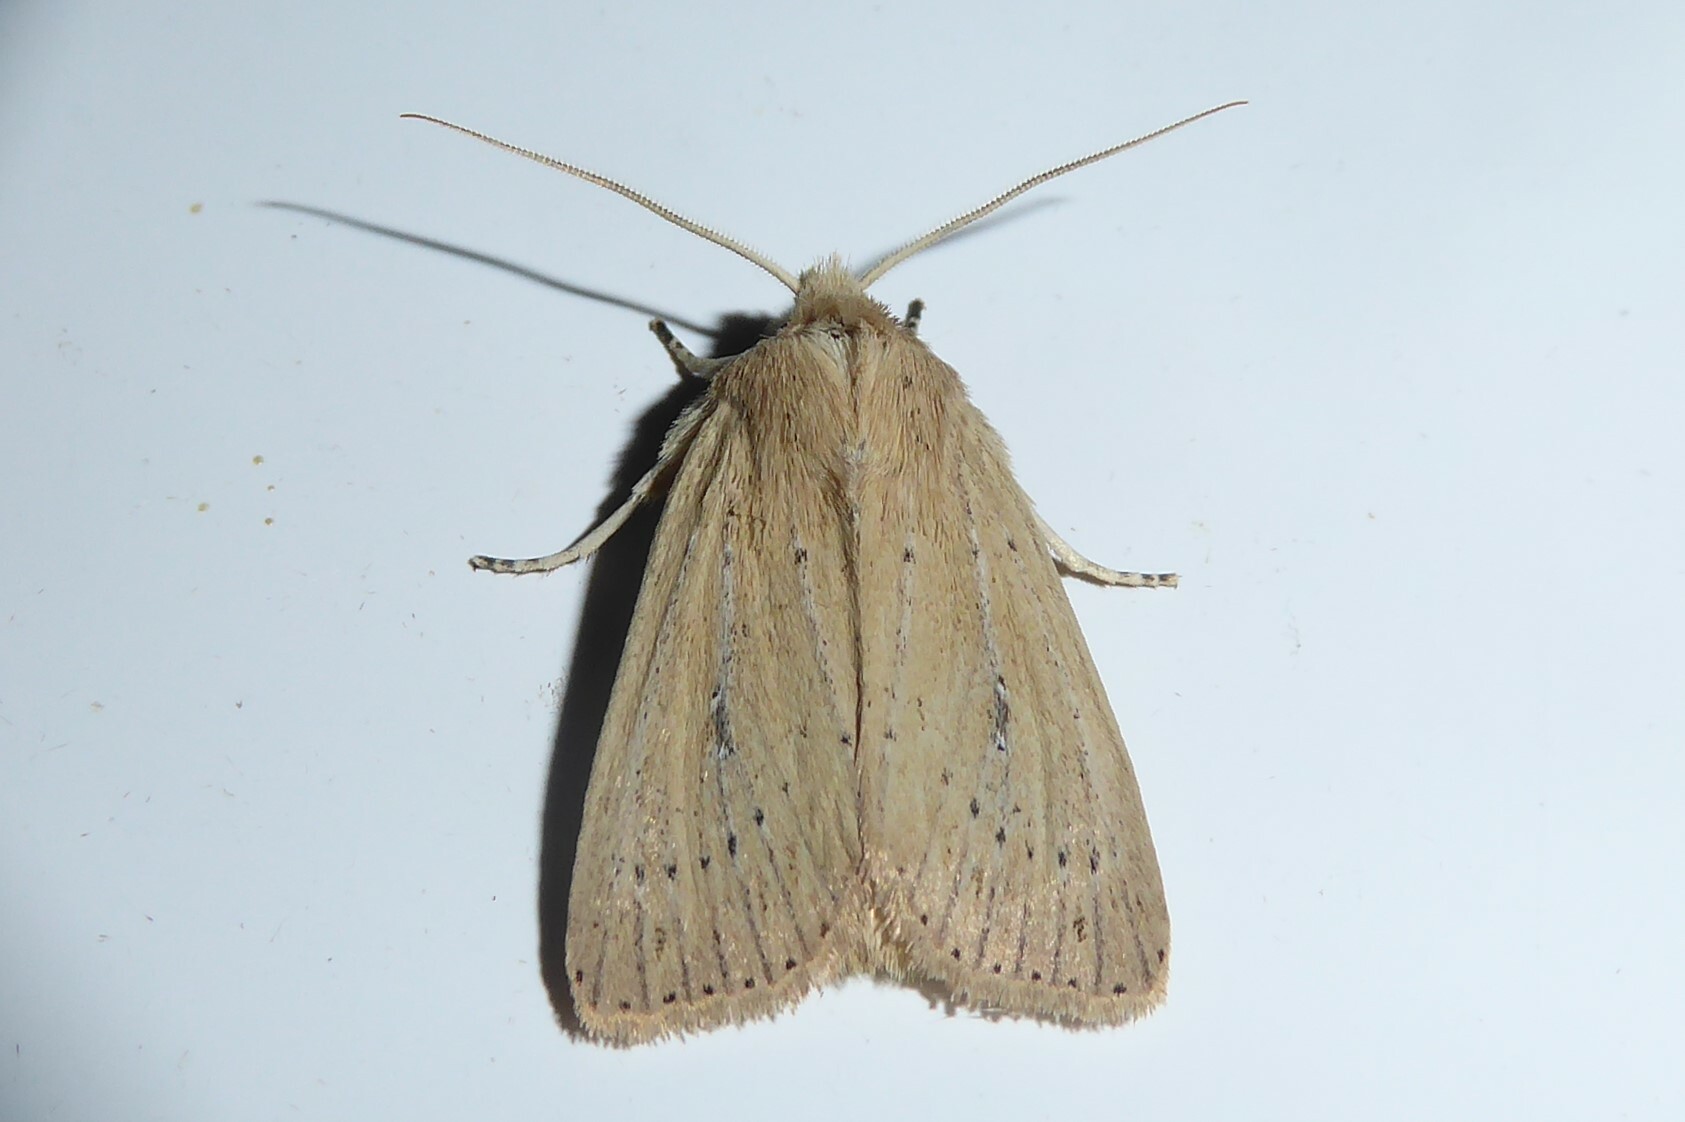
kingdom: Animalia
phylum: Arthropoda
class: Insecta
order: Lepidoptera
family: Noctuidae
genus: Ichneutica
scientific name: Ichneutica
